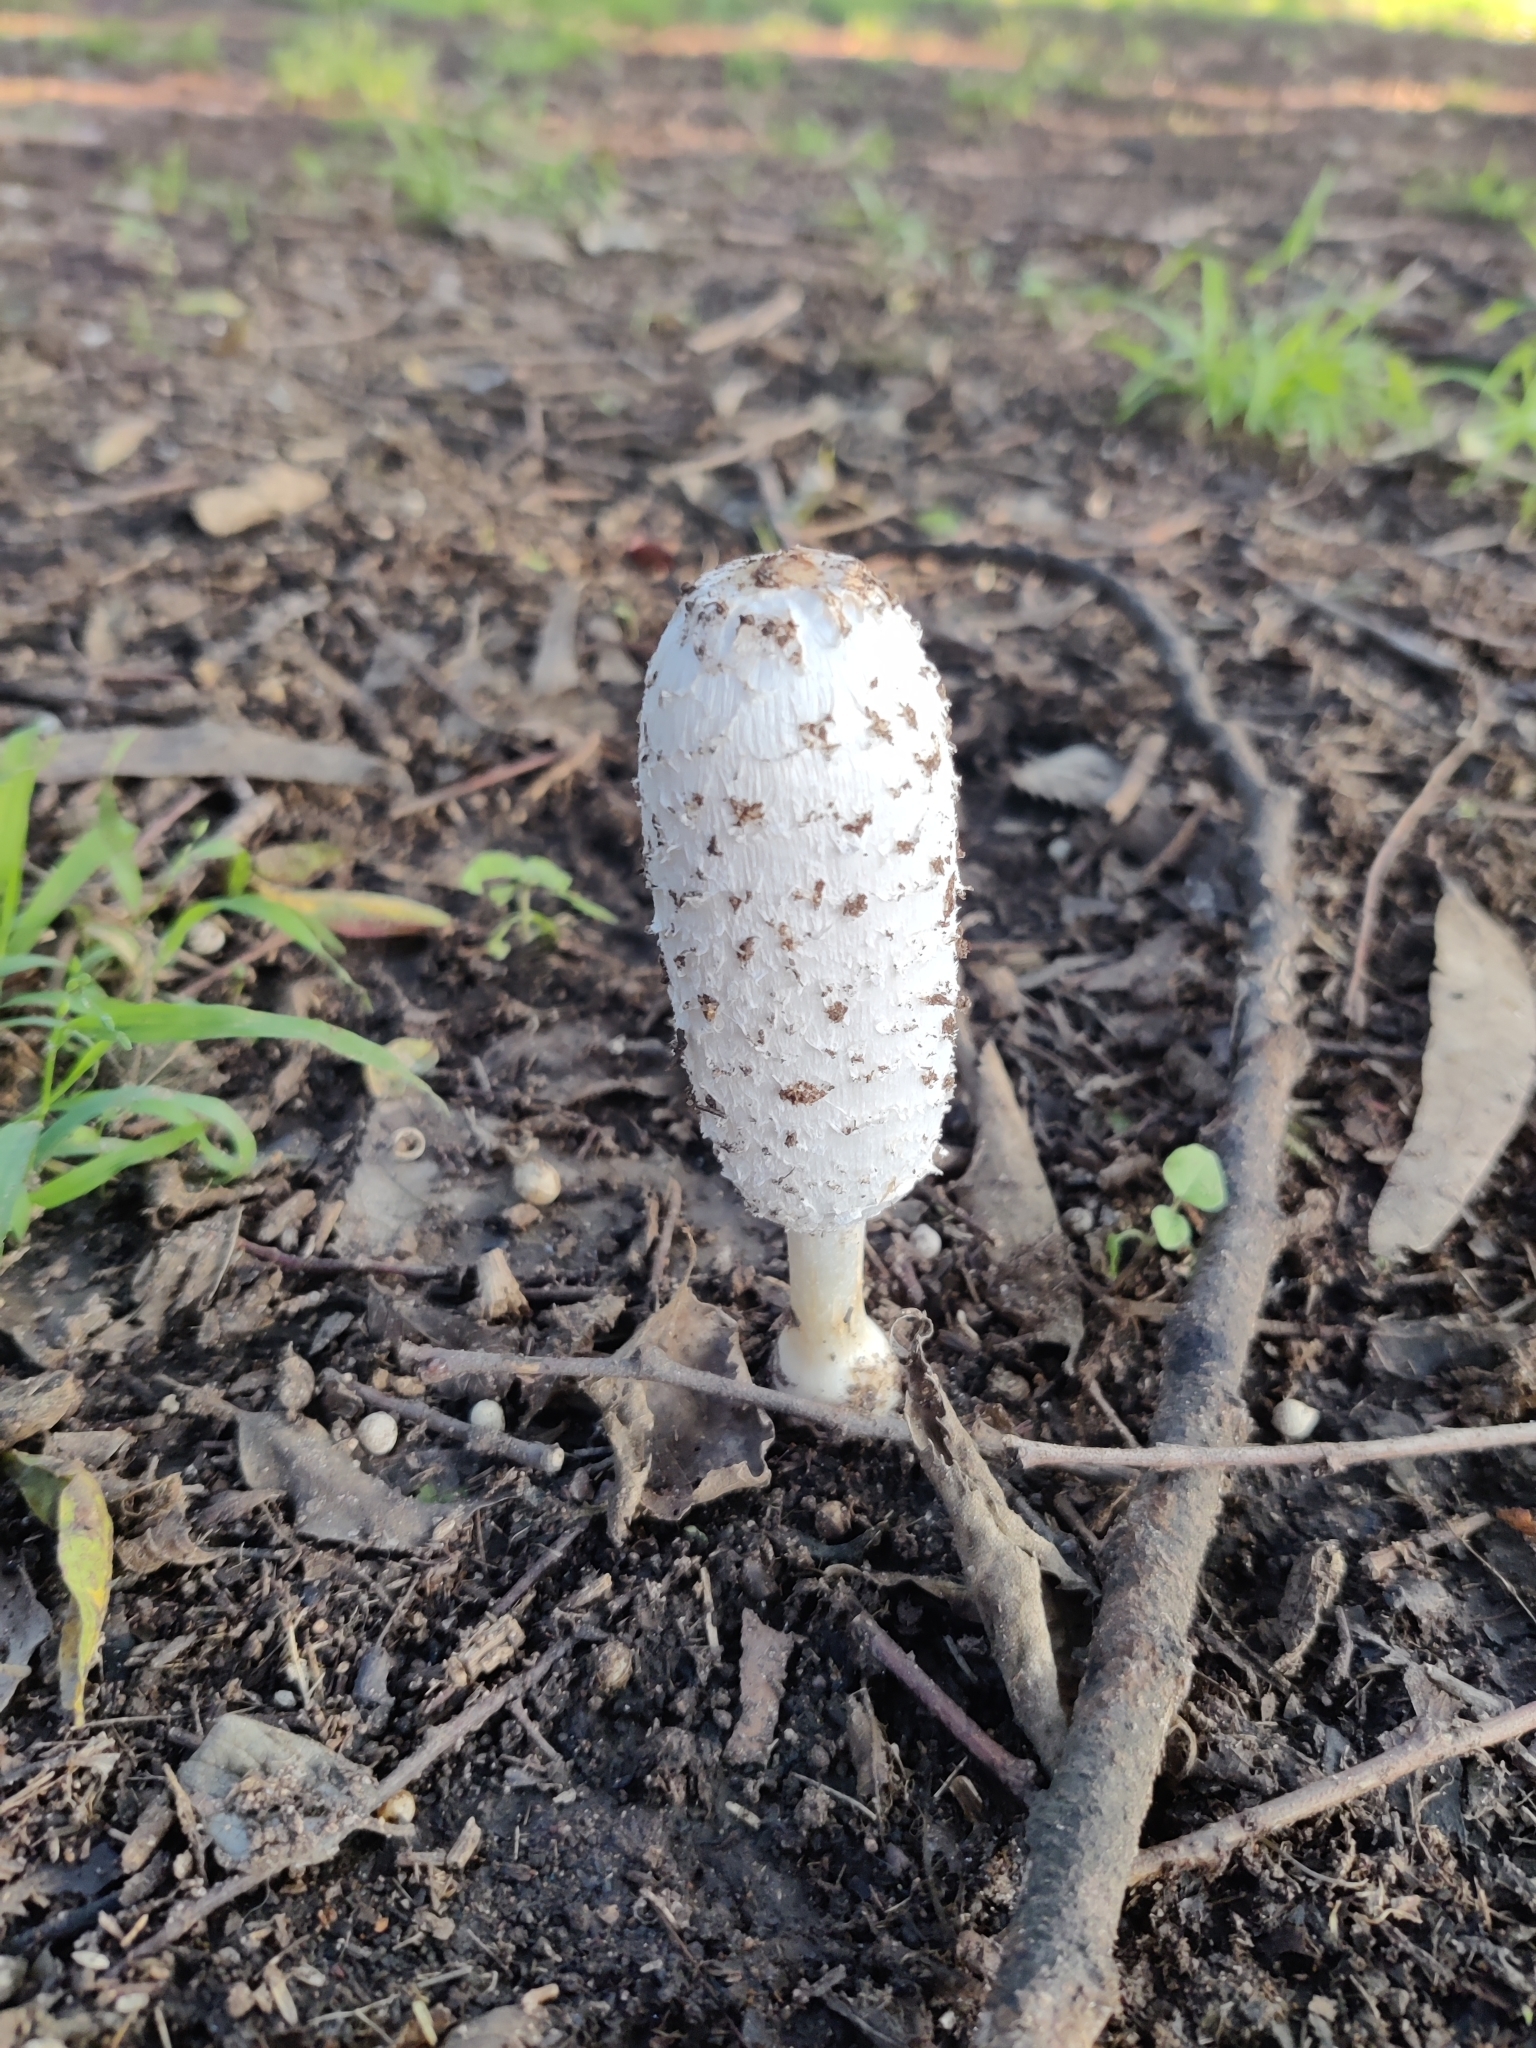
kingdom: Fungi
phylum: Basidiomycota
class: Agaricomycetes
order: Agaricales
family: Agaricaceae
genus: Coprinus
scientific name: Coprinus comatus
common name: Lawyer's wig
